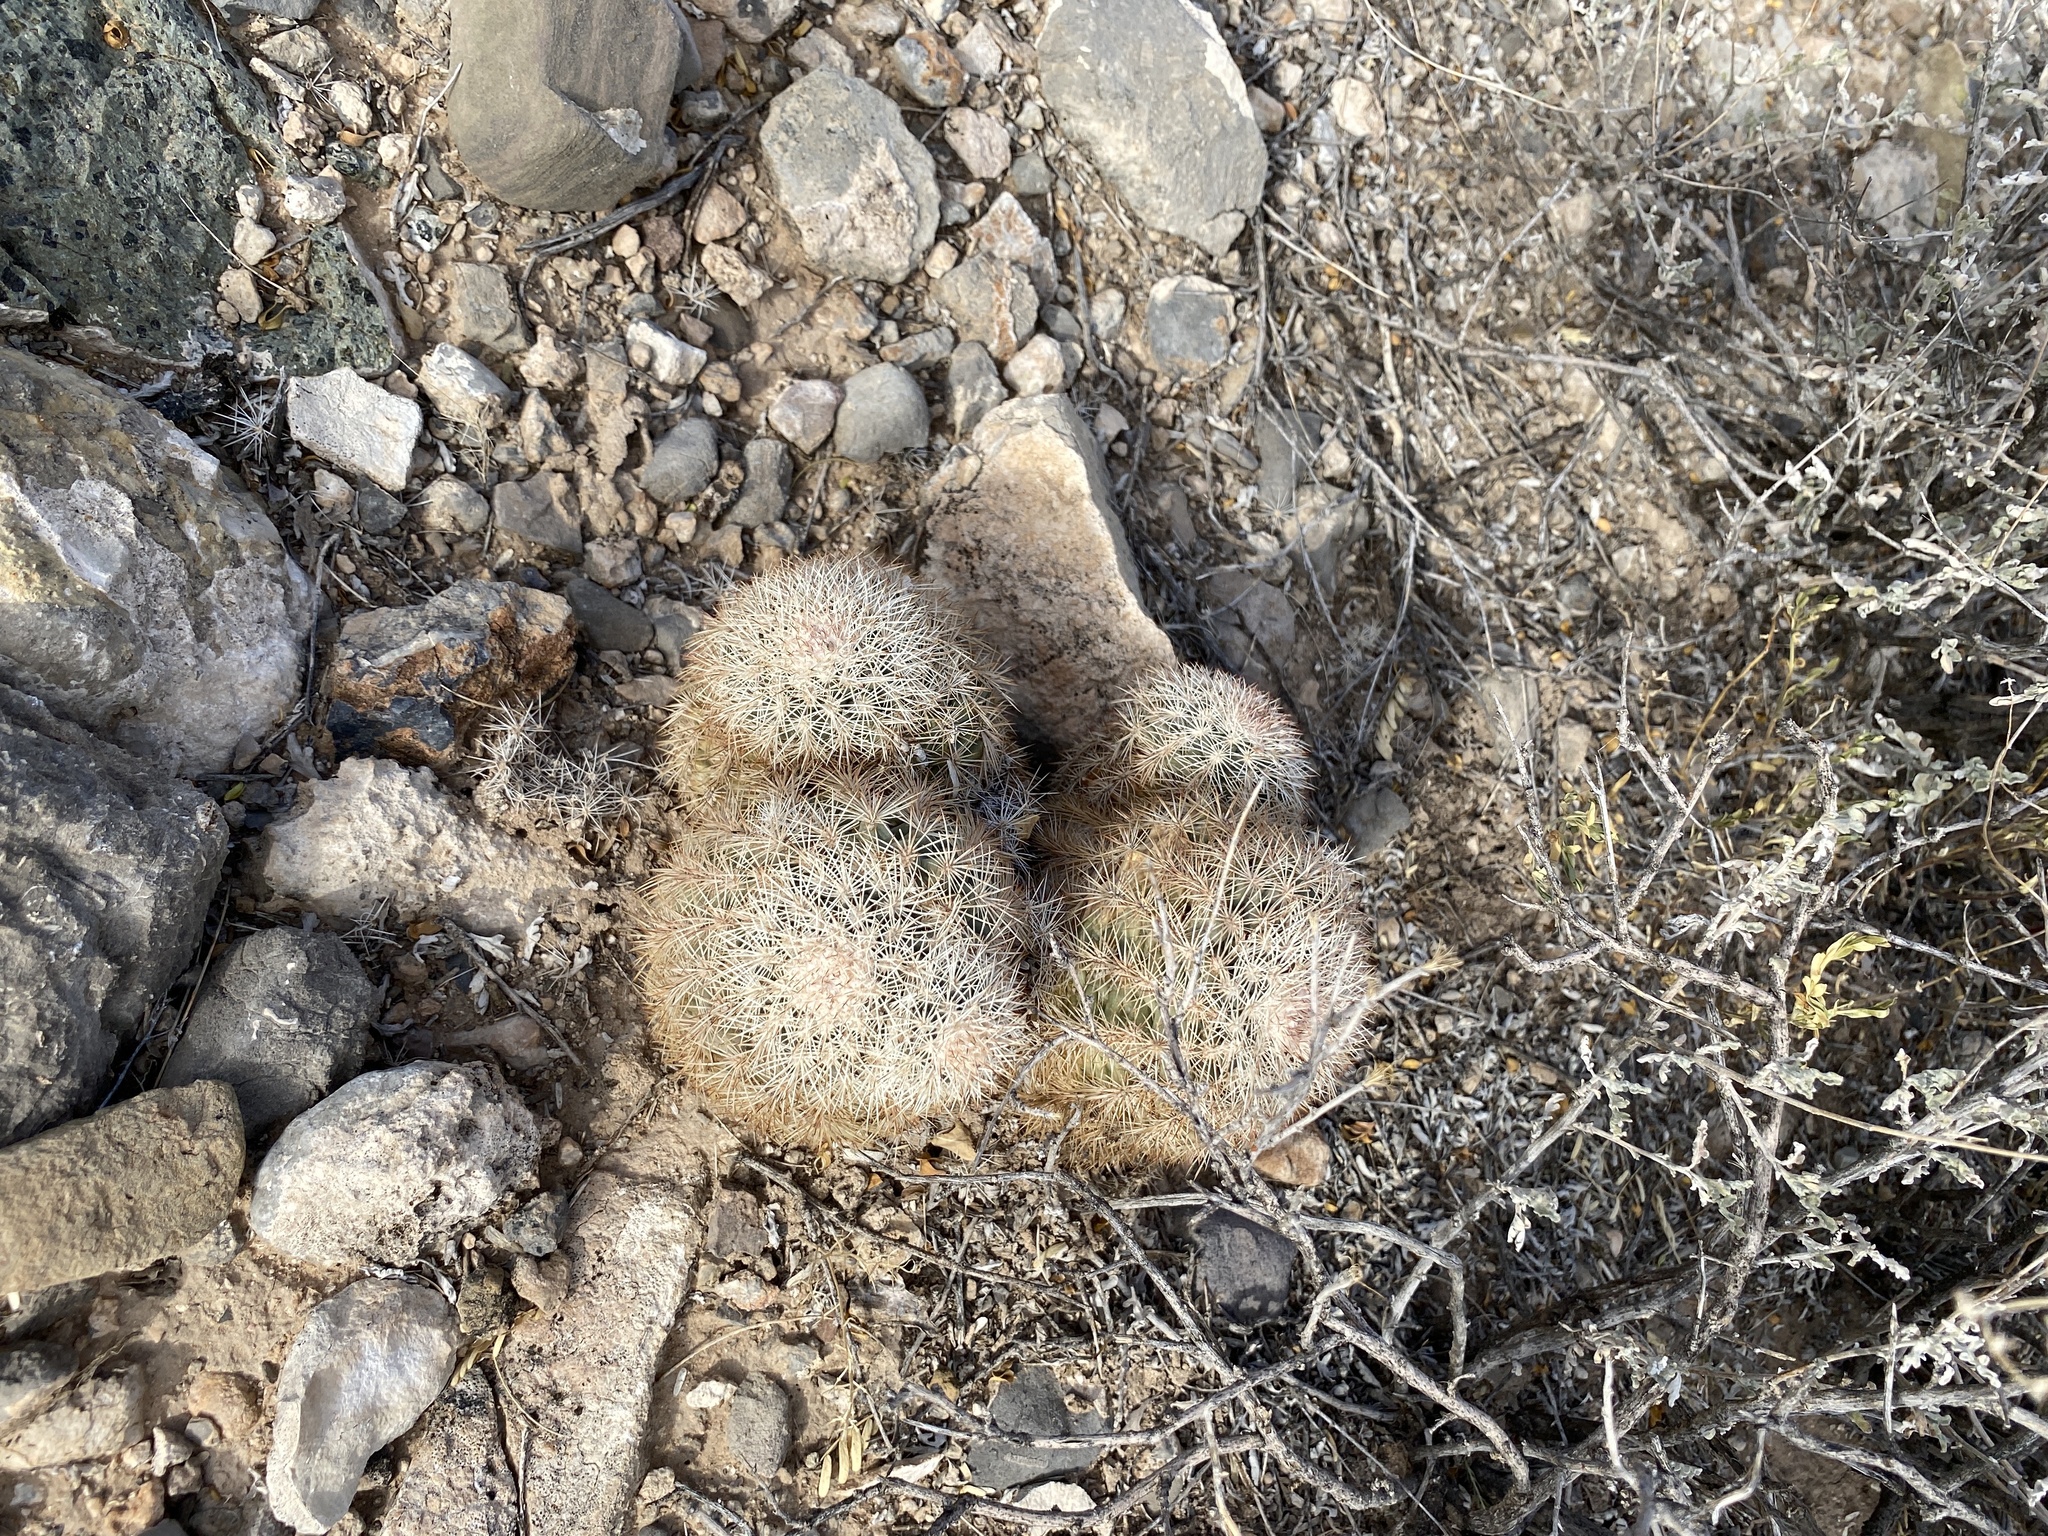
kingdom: Plantae
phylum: Tracheophyta
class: Magnoliopsida
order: Caryophyllales
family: Cactaceae
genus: Echinocereus
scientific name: Echinocereus dasyacanthus
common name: Spiny hedgehog cactus
